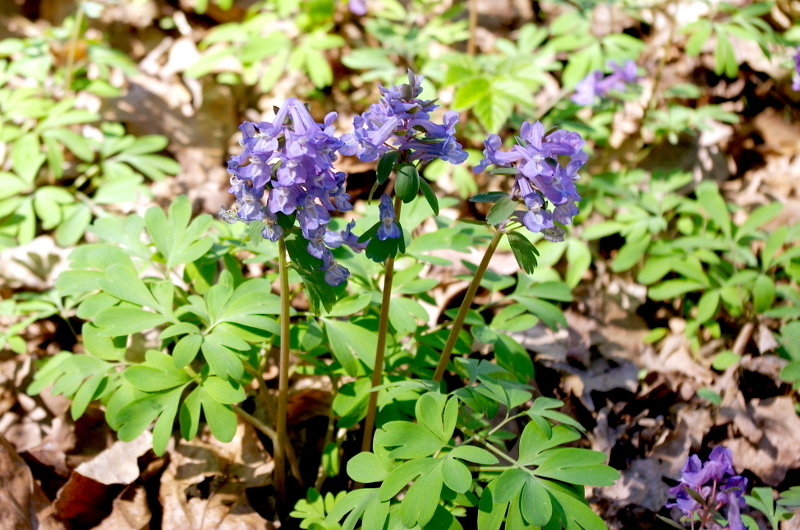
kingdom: Plantae
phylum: Tracheophyta
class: Magnoliopsida
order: Ranunculales
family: Papaveraceae
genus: Corydalis
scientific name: Corydalis solida
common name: Bird-in-a-bush
